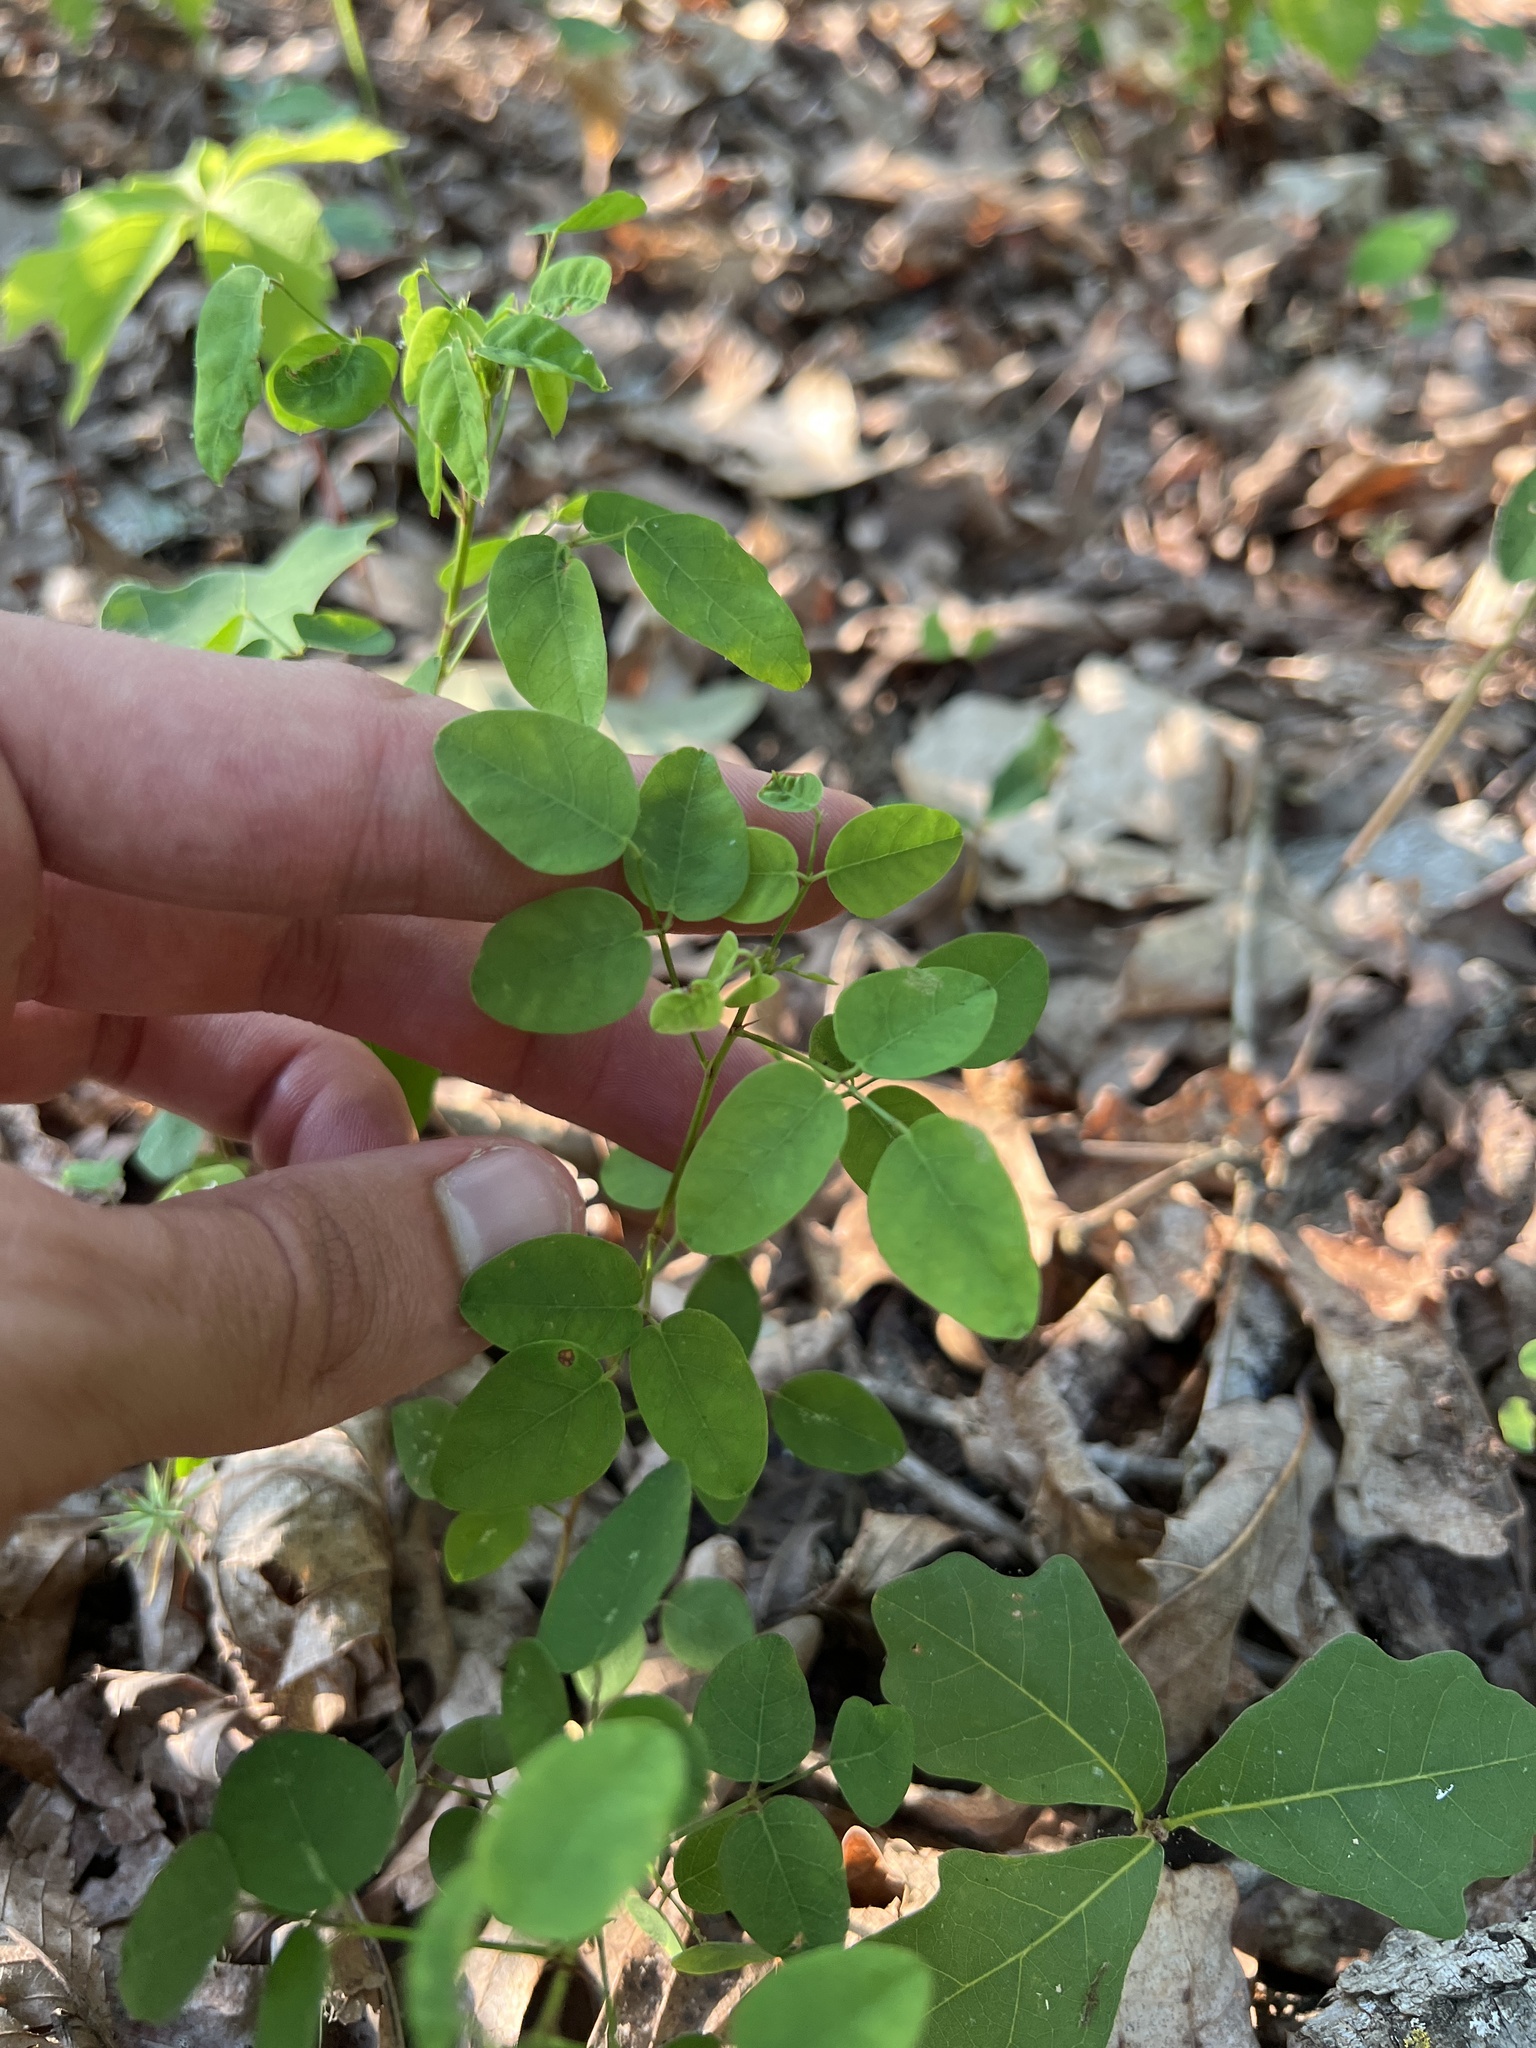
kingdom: Plantae
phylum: Tracheophyta
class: Magnoliopsida
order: Fabales
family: Fabaceae
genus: Desmodium
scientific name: Desmodium marilandicum
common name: Maryland tick-trefoil
